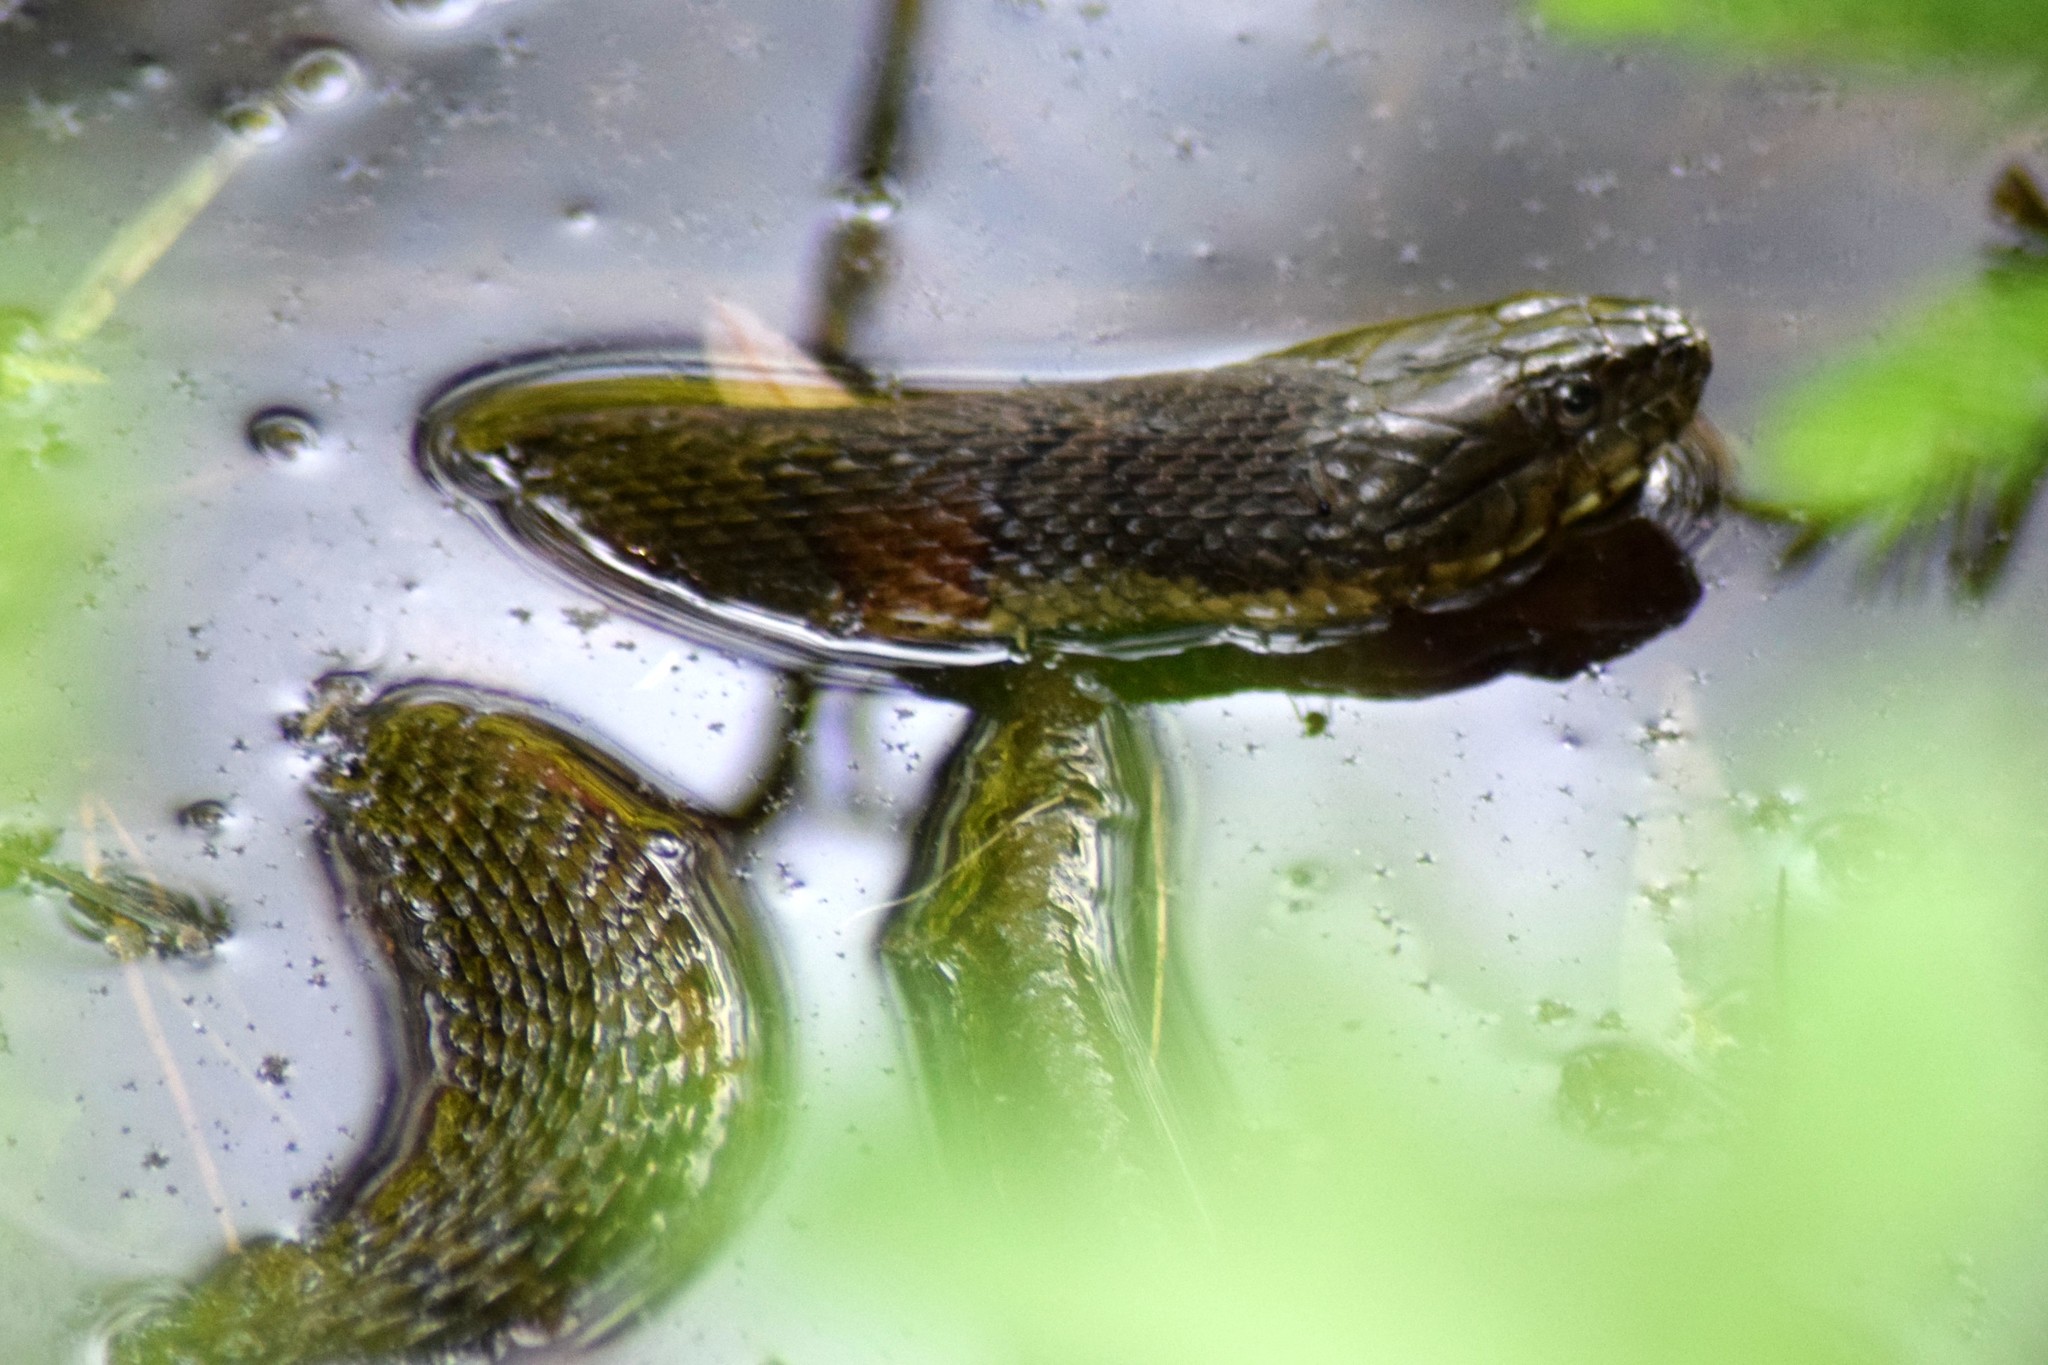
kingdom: Animalia
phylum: Chordata
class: Squamata
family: Colubridae
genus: Nerodia
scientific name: Nerodia sipedon
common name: Northern water snake
